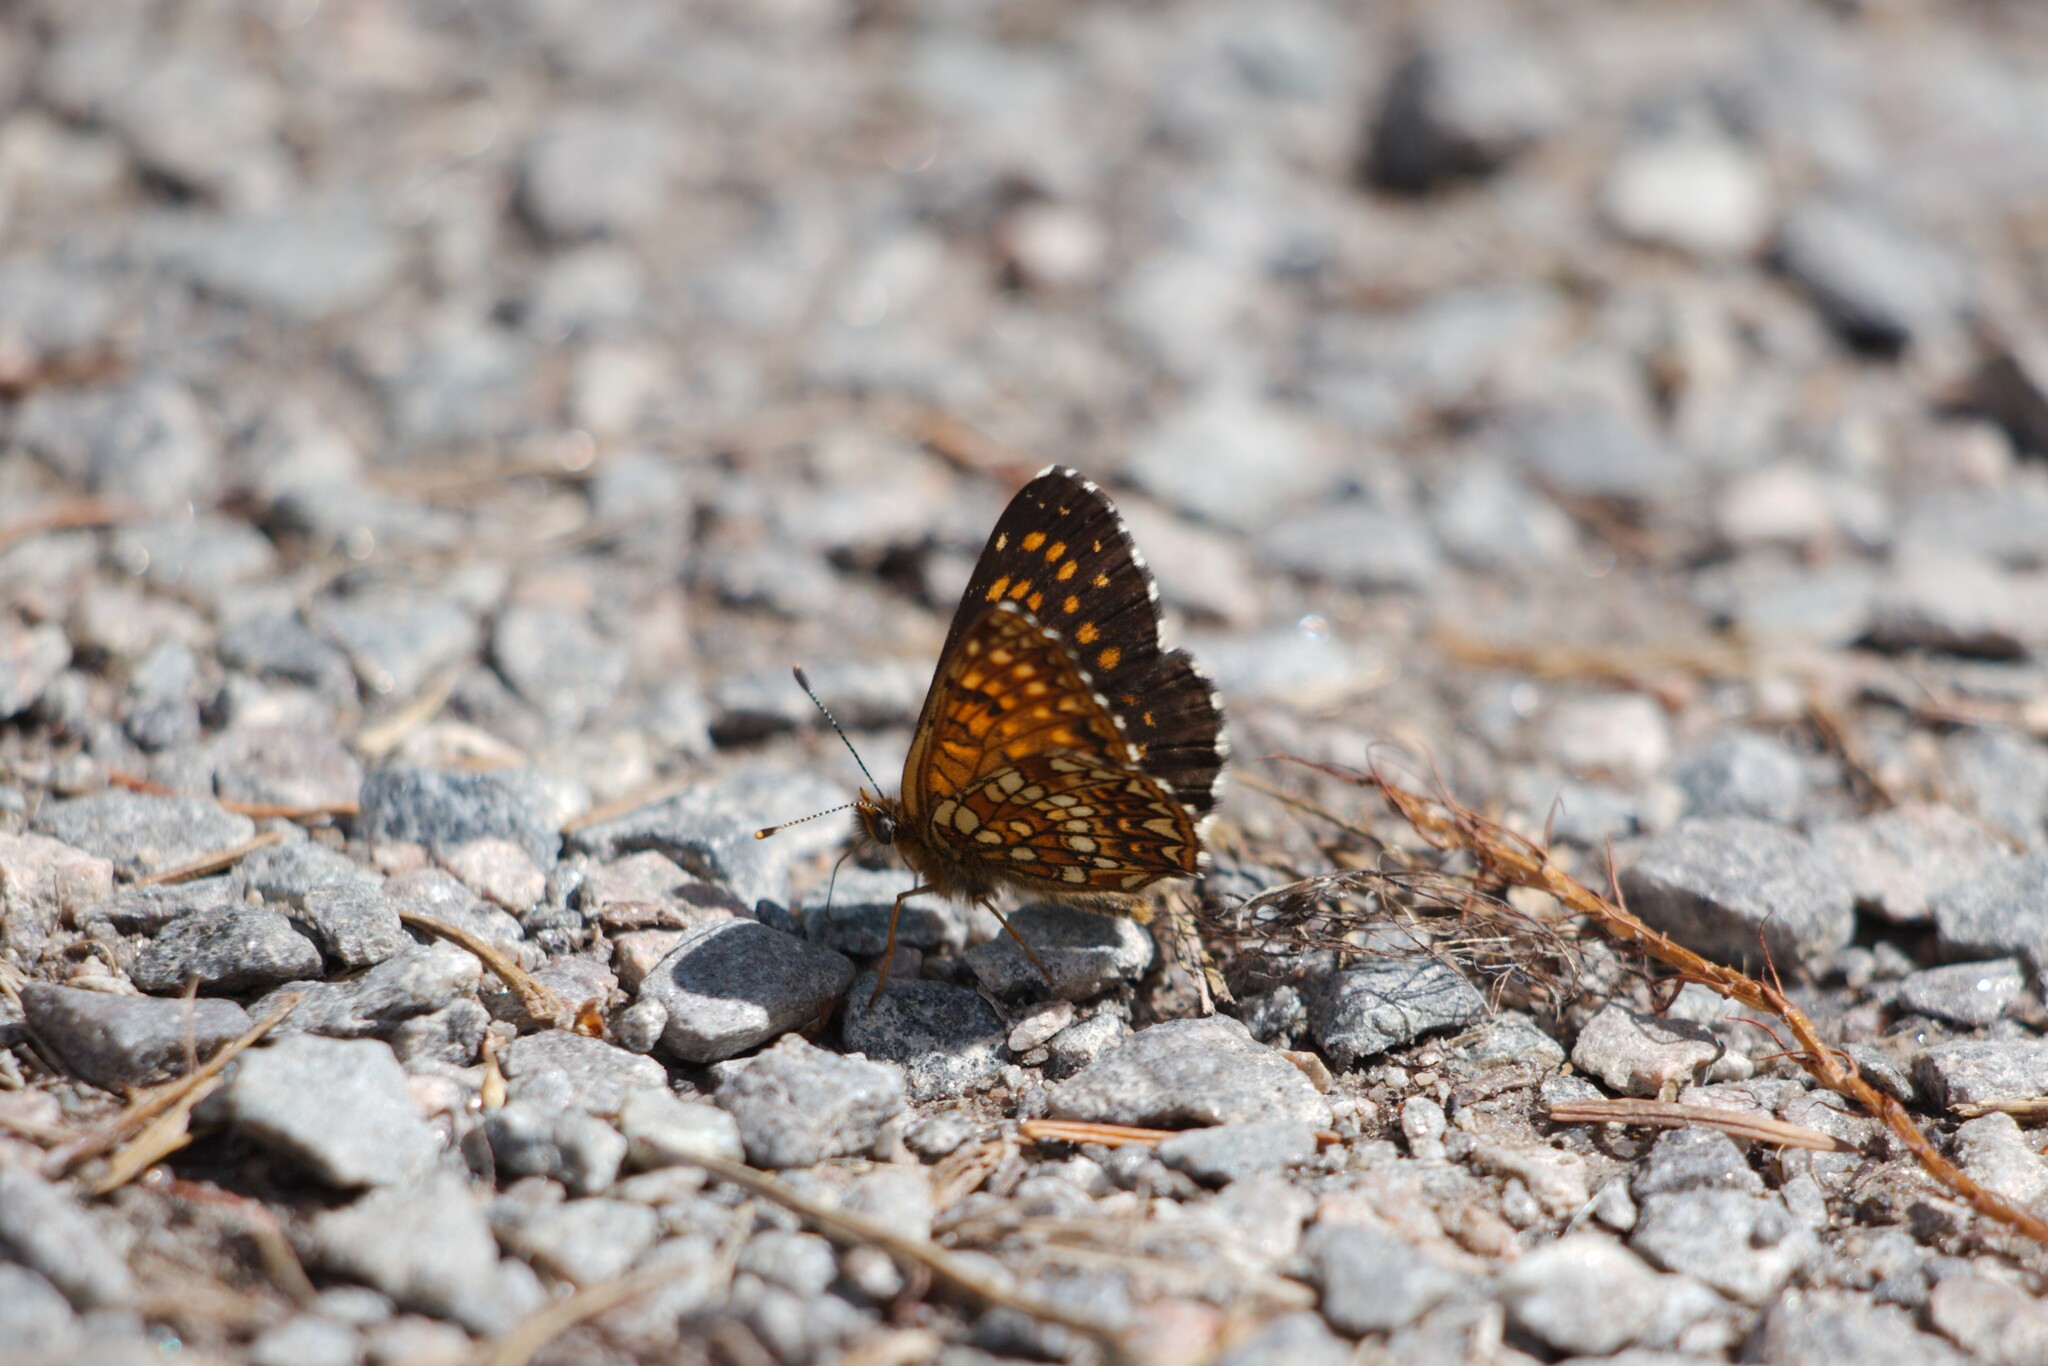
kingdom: Animalia
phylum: Arthropoda
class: Insecta
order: Lepidoptera
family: Nymphalidae
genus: Melitaea
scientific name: Melitaea diamina
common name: False heath fritillary
